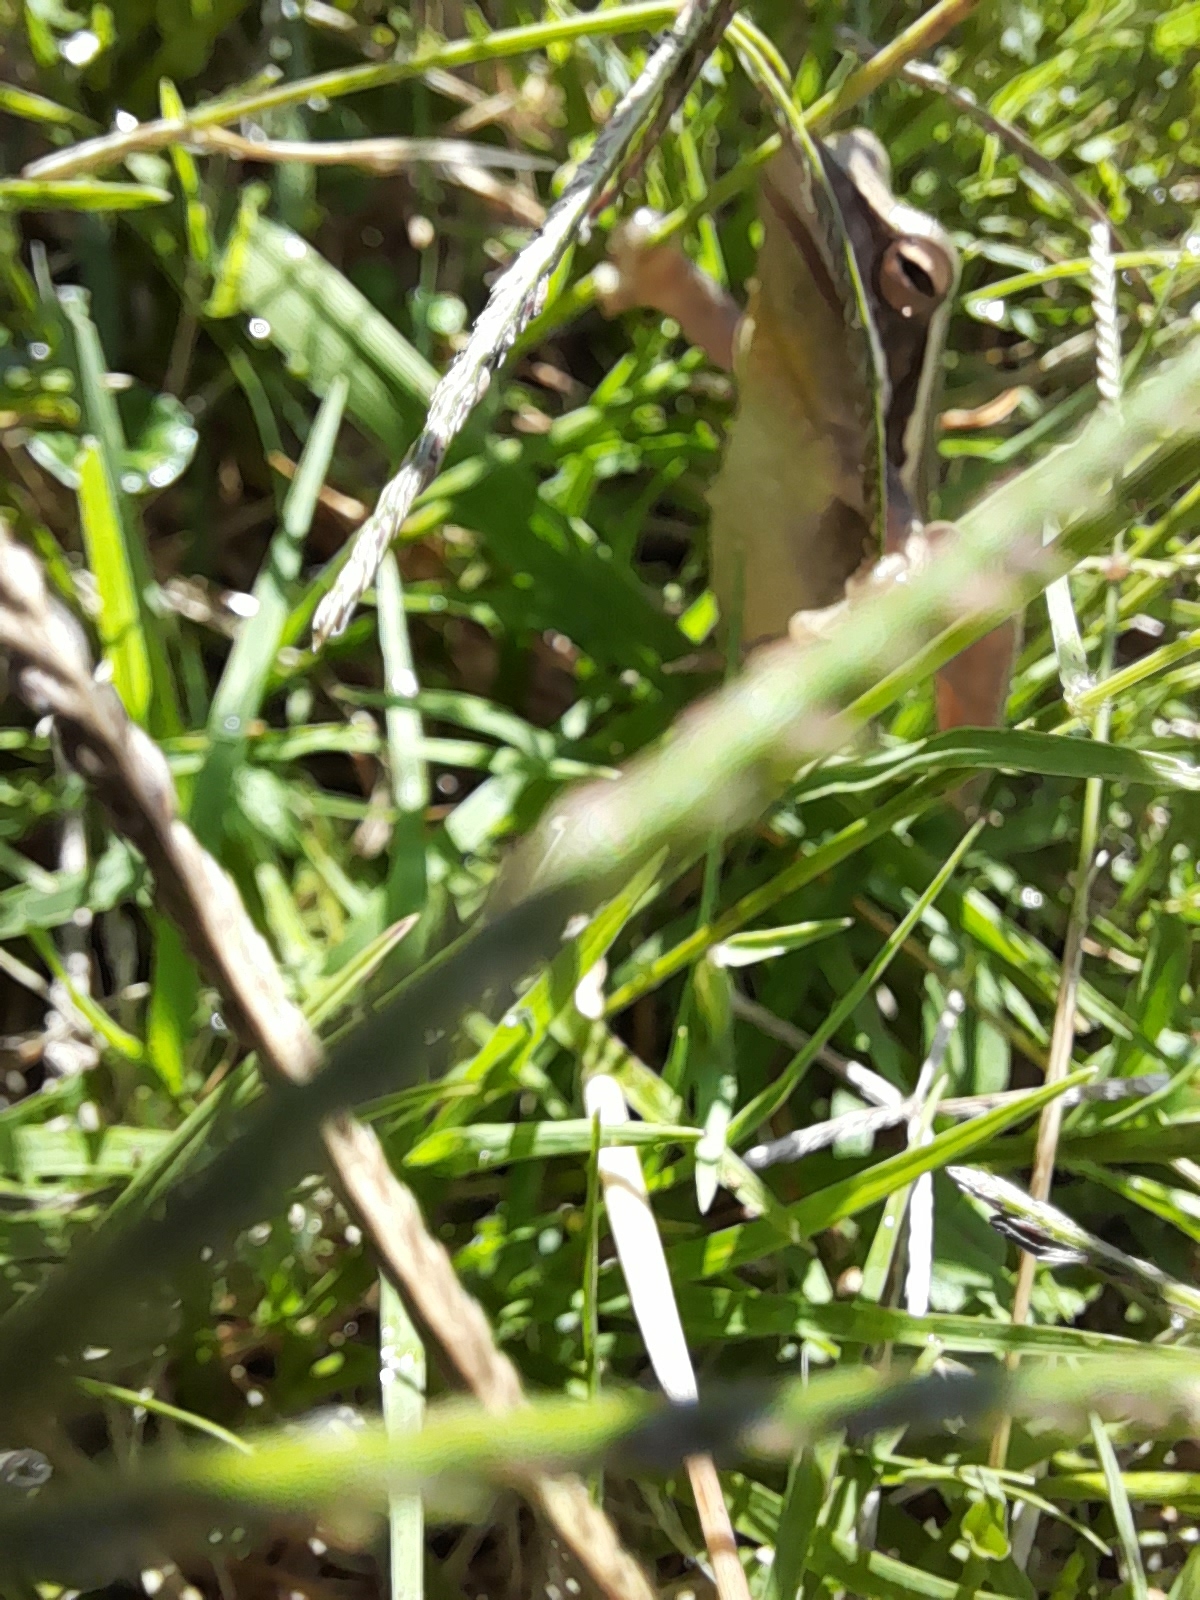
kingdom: Animalia
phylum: Chordata
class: Amphibia
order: Anura
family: Hylidae
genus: Boana
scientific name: Boana pulchella
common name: Montevideo treefrog
